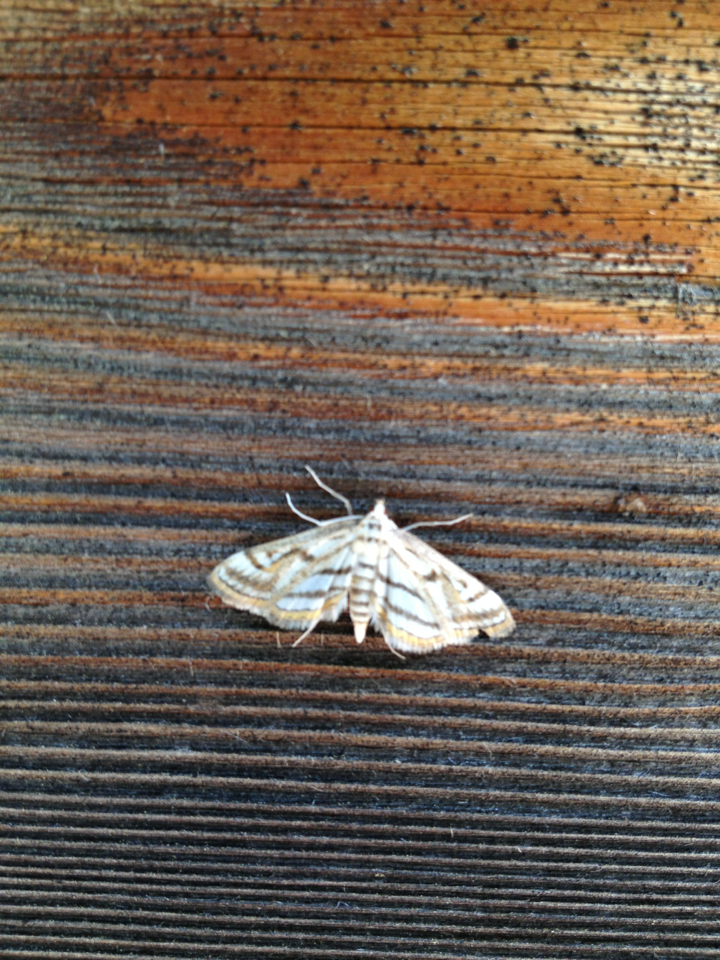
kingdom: Animalia
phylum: Arthropoda
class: Insecta
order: Lepidoptera
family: Crambidae
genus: Parapoynx
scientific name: Parapoynx badiusalis
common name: Chestnut-marked pondweed moth
